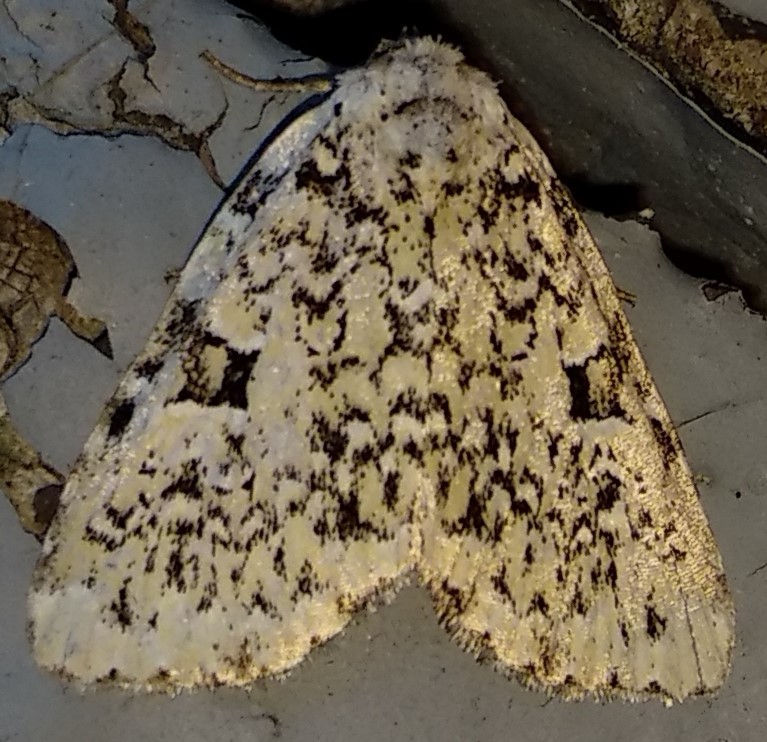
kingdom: Animalia
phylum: Arthropoda
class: Insecta
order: Lepidoptera
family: Noctuidae
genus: Leuconycta
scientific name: Leuconycta diphteroides
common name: Green leuconycta moth
